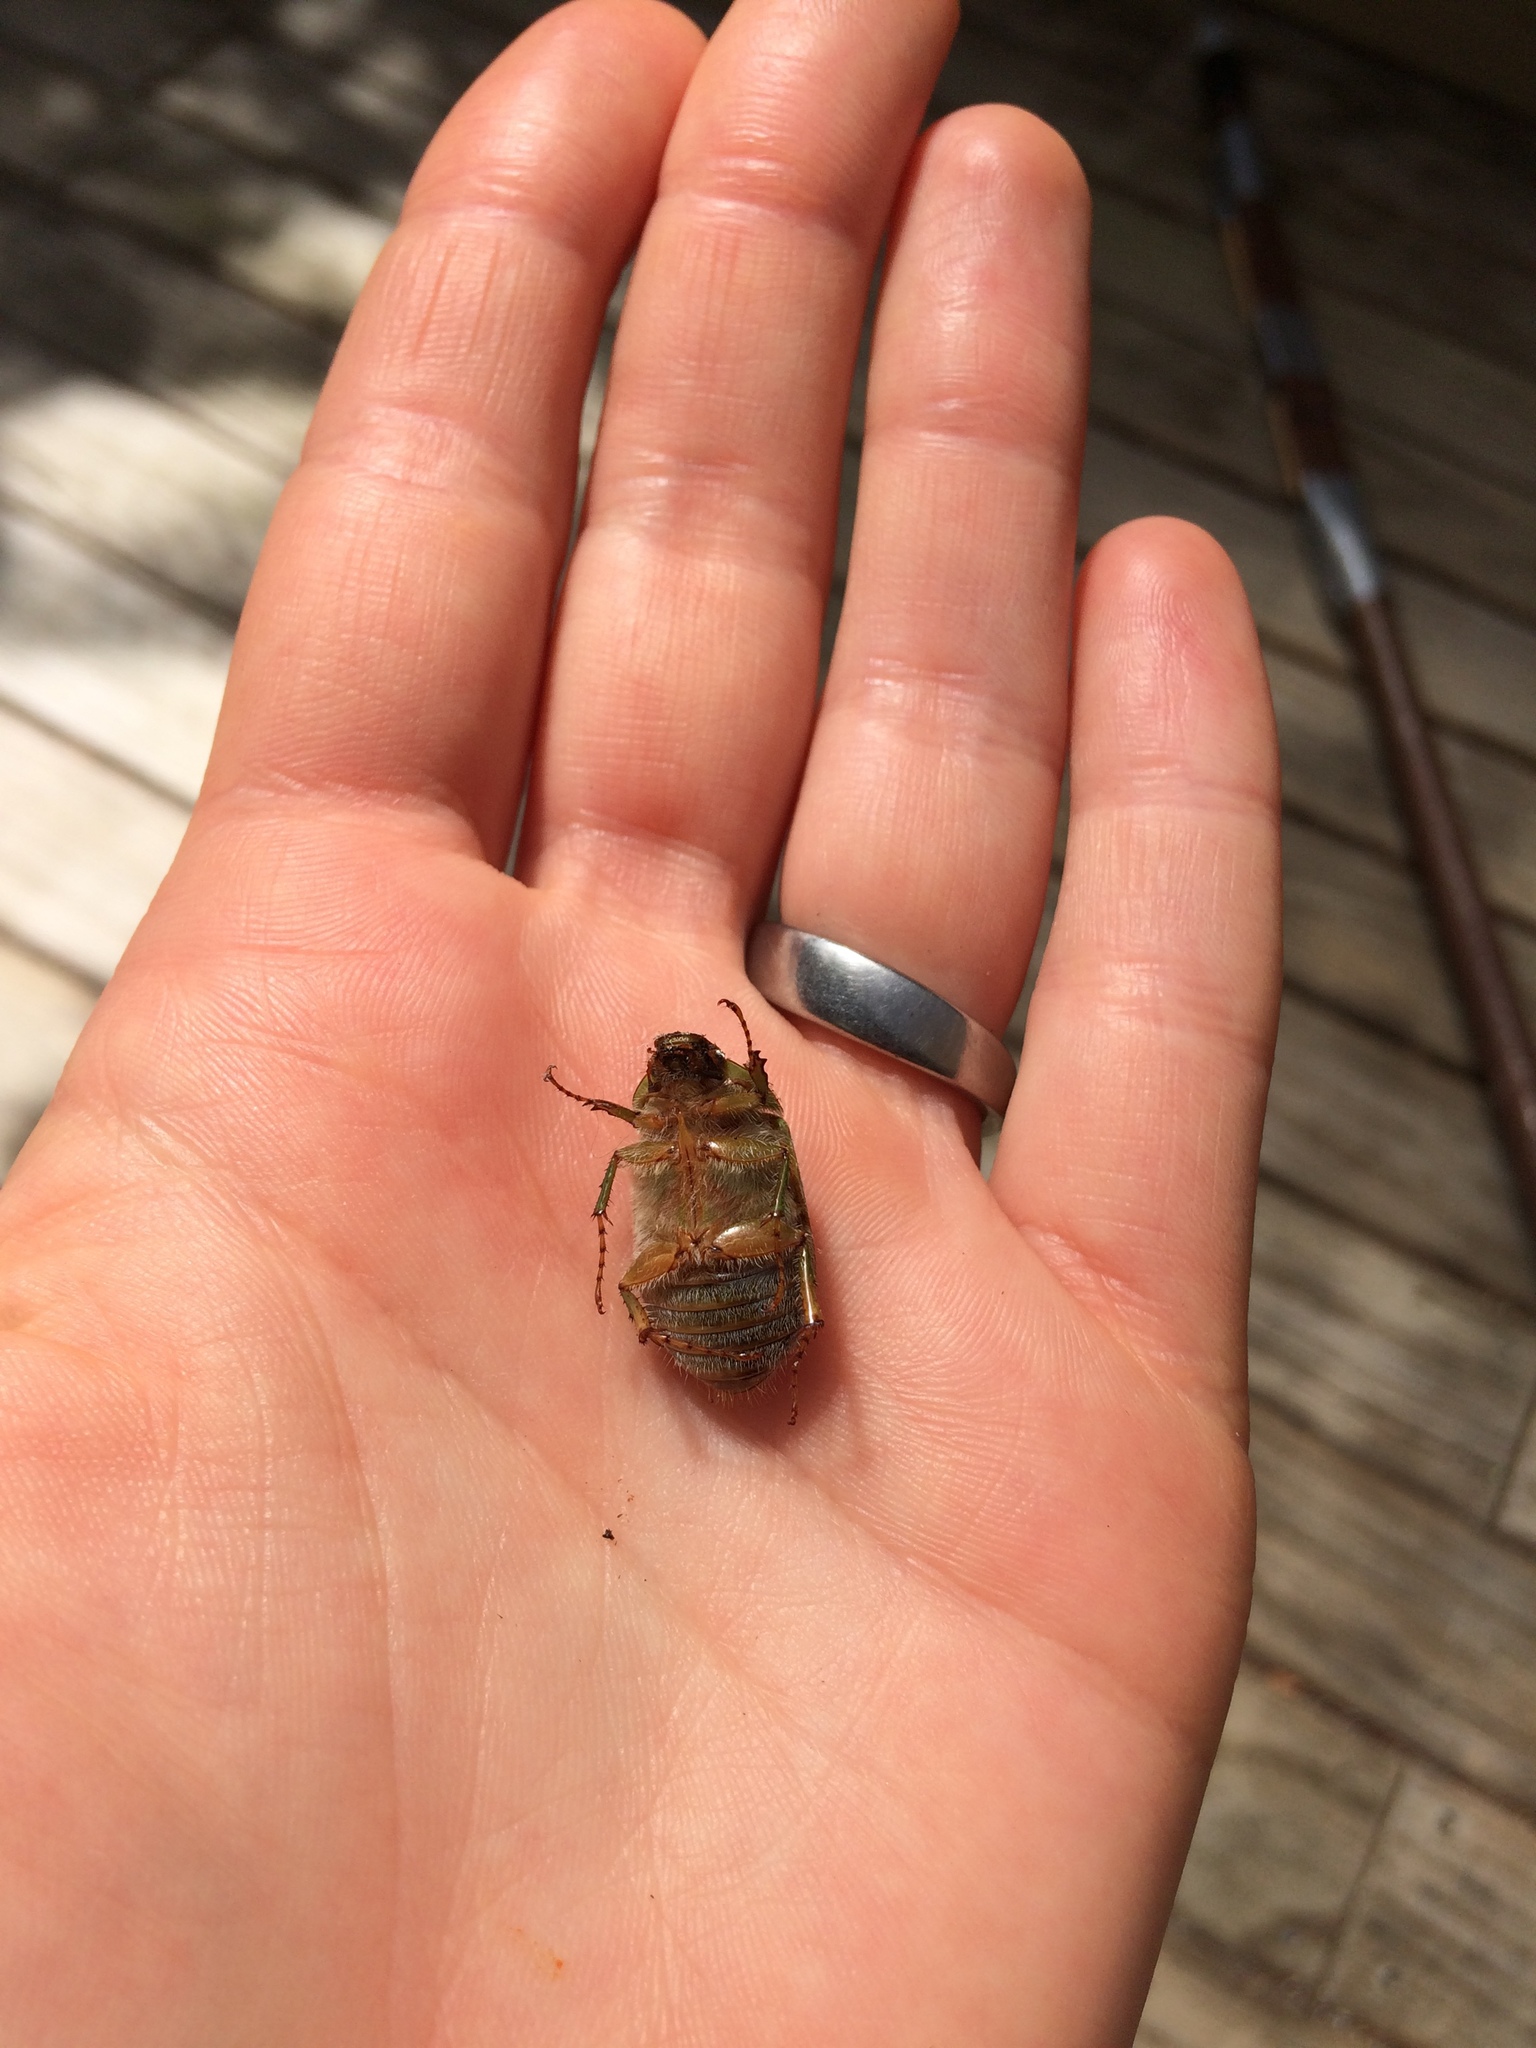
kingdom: Animalia
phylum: Arthropoda
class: Insecta
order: Coleoptera
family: Scarabaeidae
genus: Stethaspis
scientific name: Stethaspis longicornis
